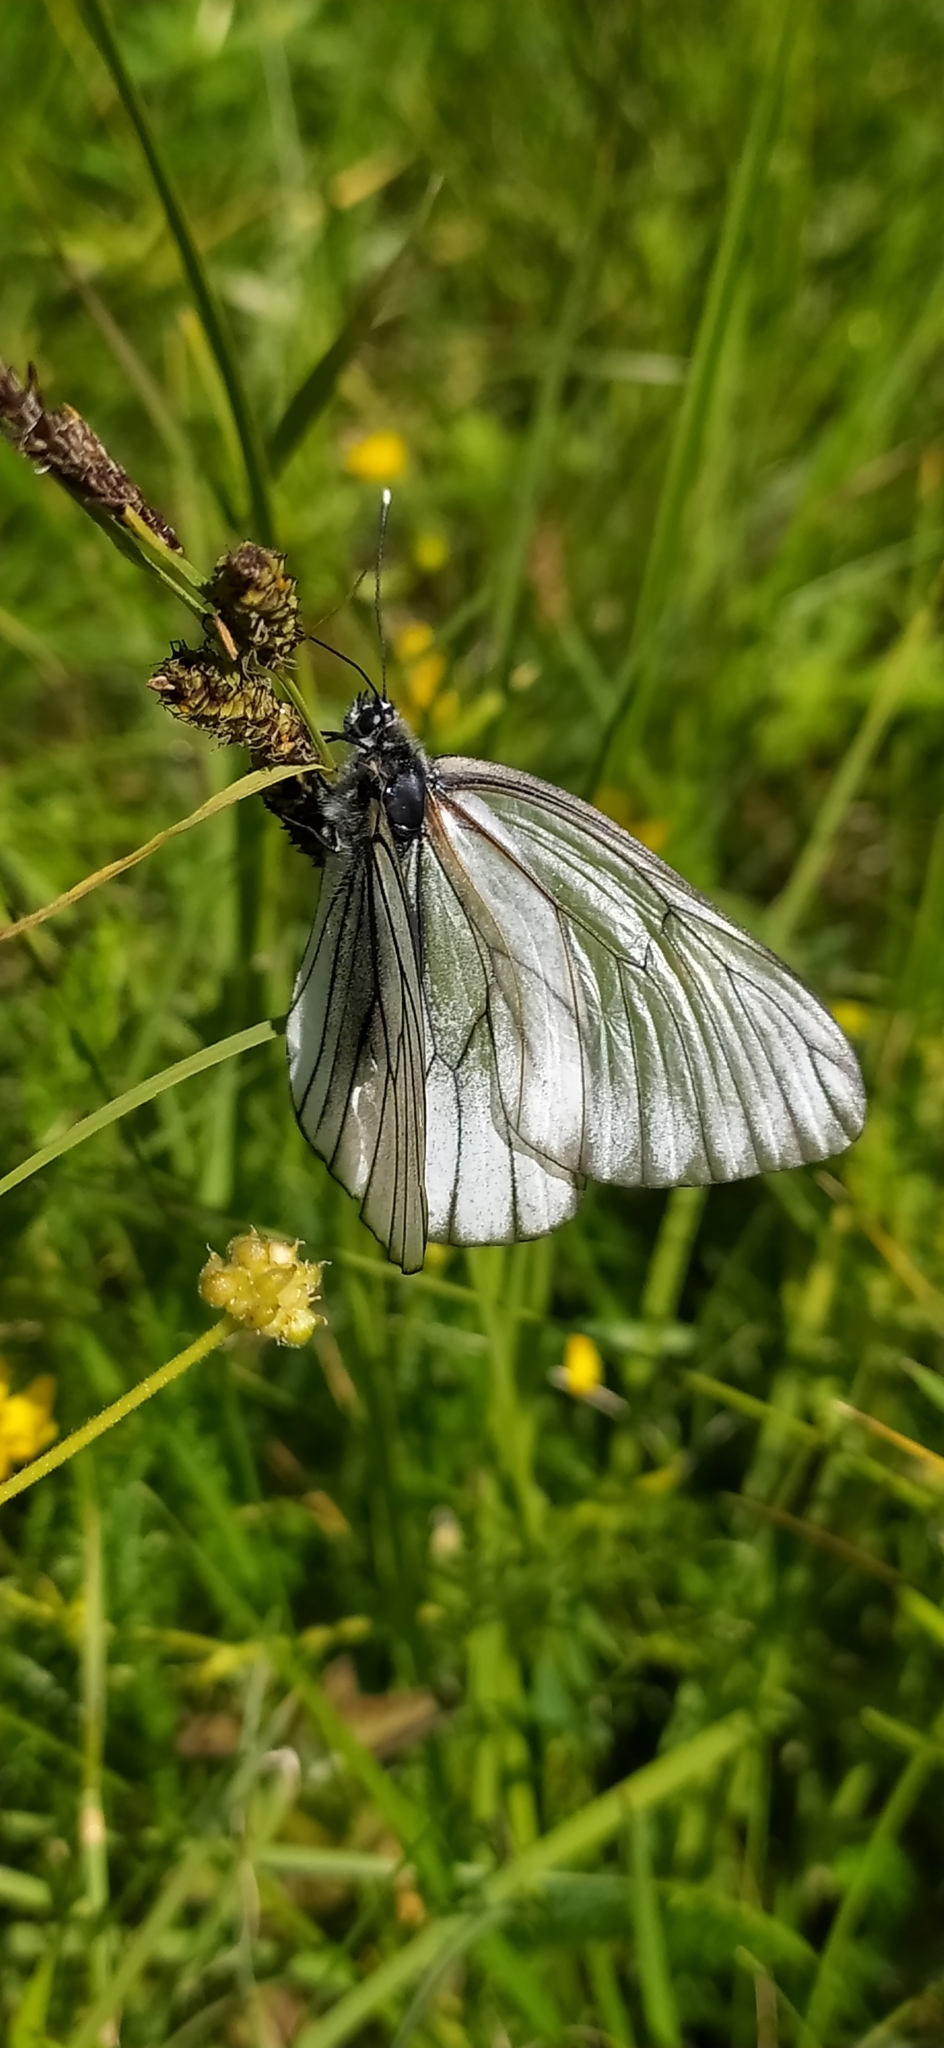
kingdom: Animalia
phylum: Arthropoda
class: Insecta
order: Lepidoptera
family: Pieridae
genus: Aporia
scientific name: Aporia crataegi
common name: Black-veined white
